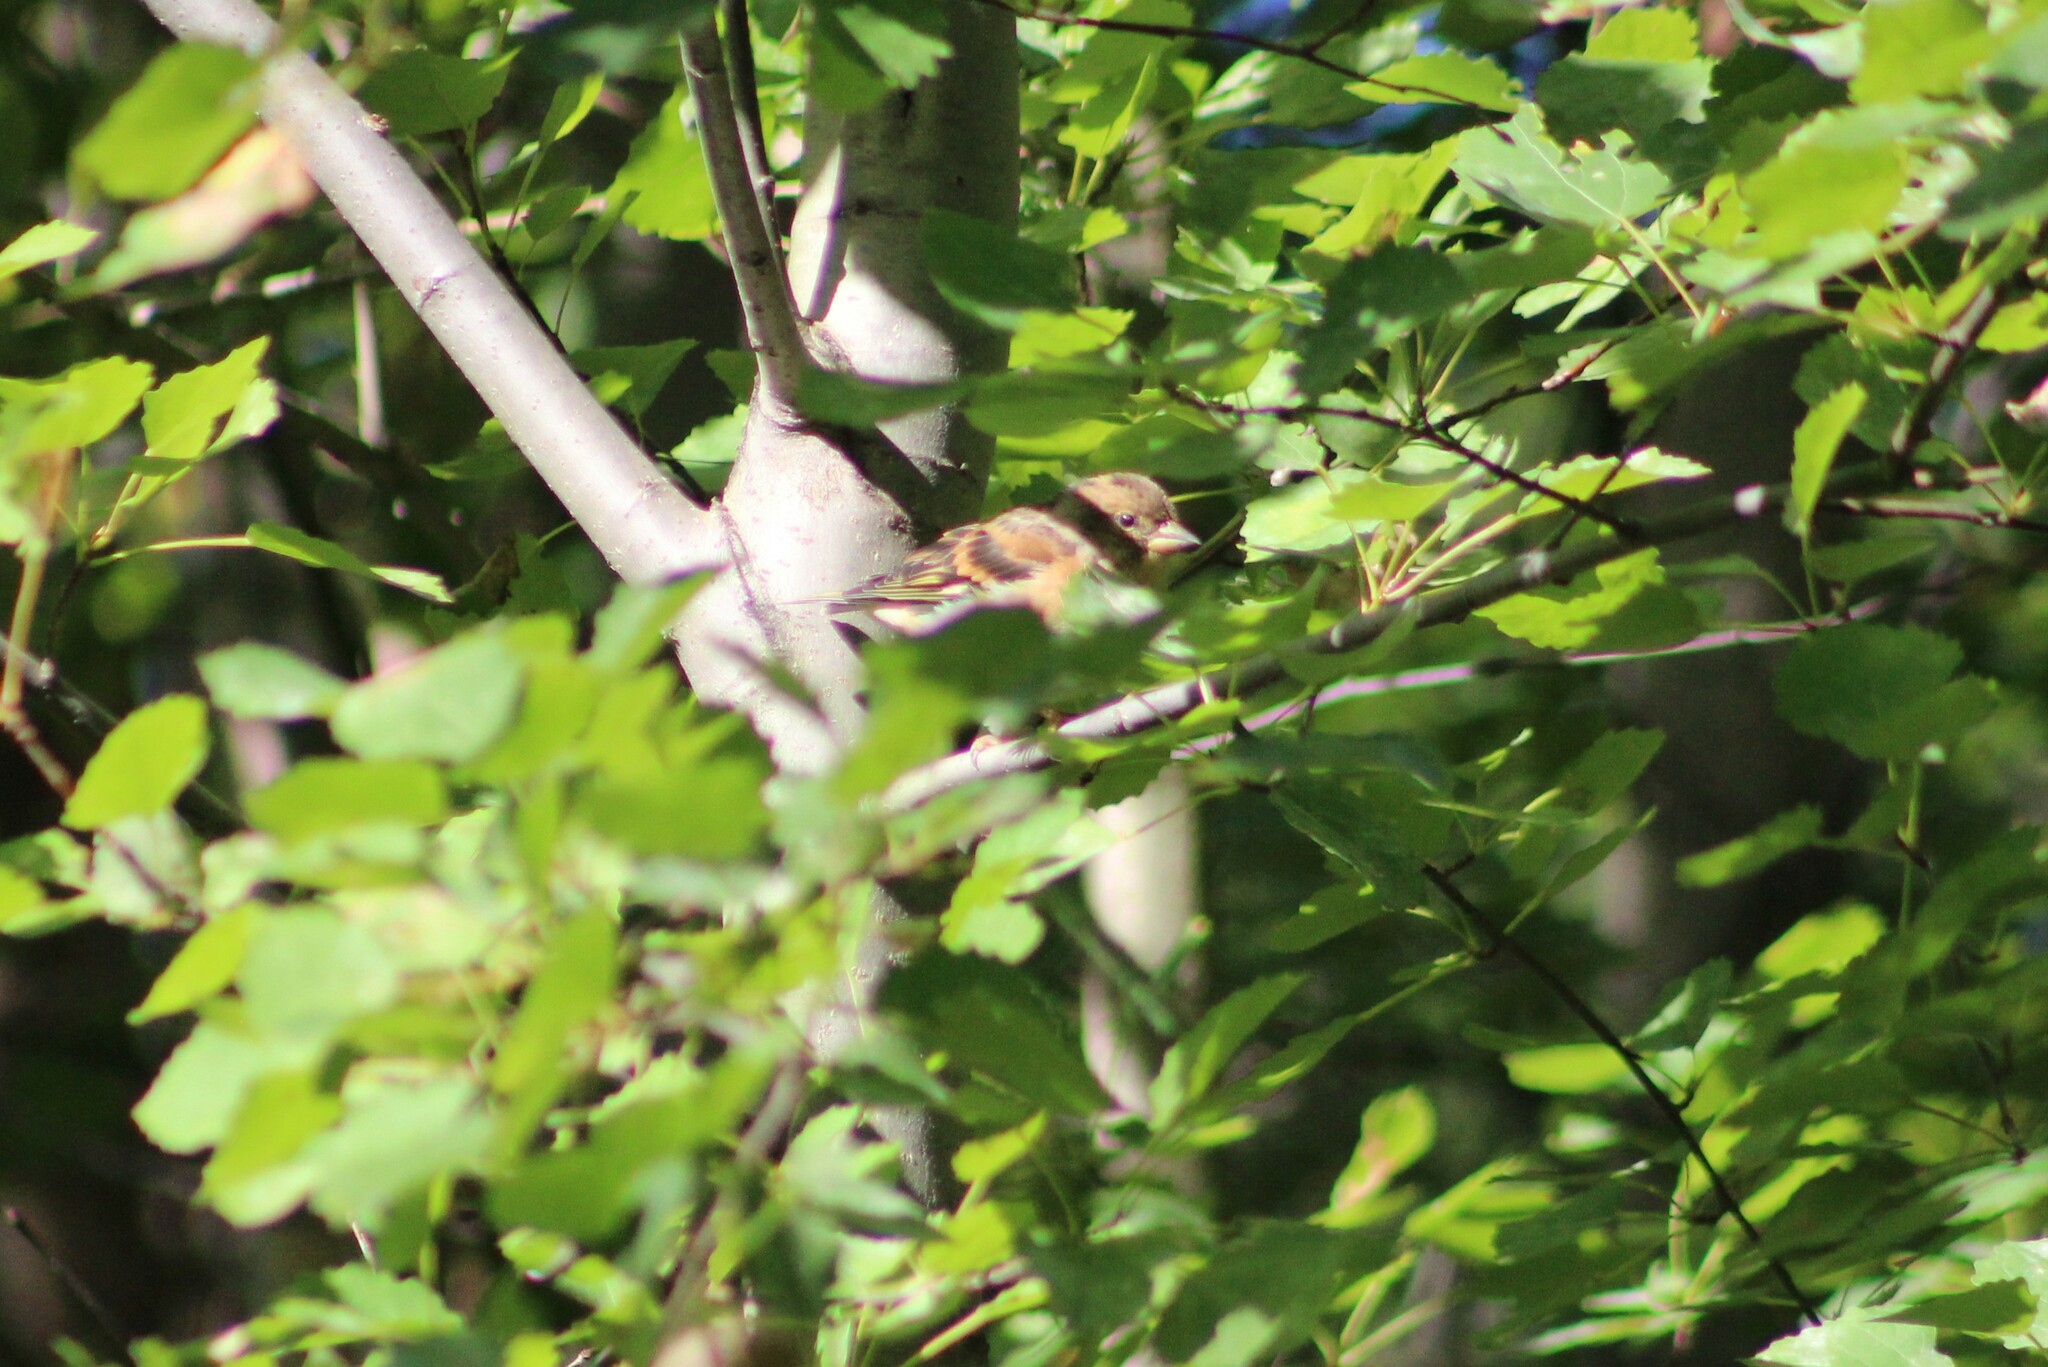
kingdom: Animalia
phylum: Chordata
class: Aves
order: Passeriformes
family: Fringillidae
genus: Fringilla
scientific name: Fringilla montifringilla
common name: Brambling
